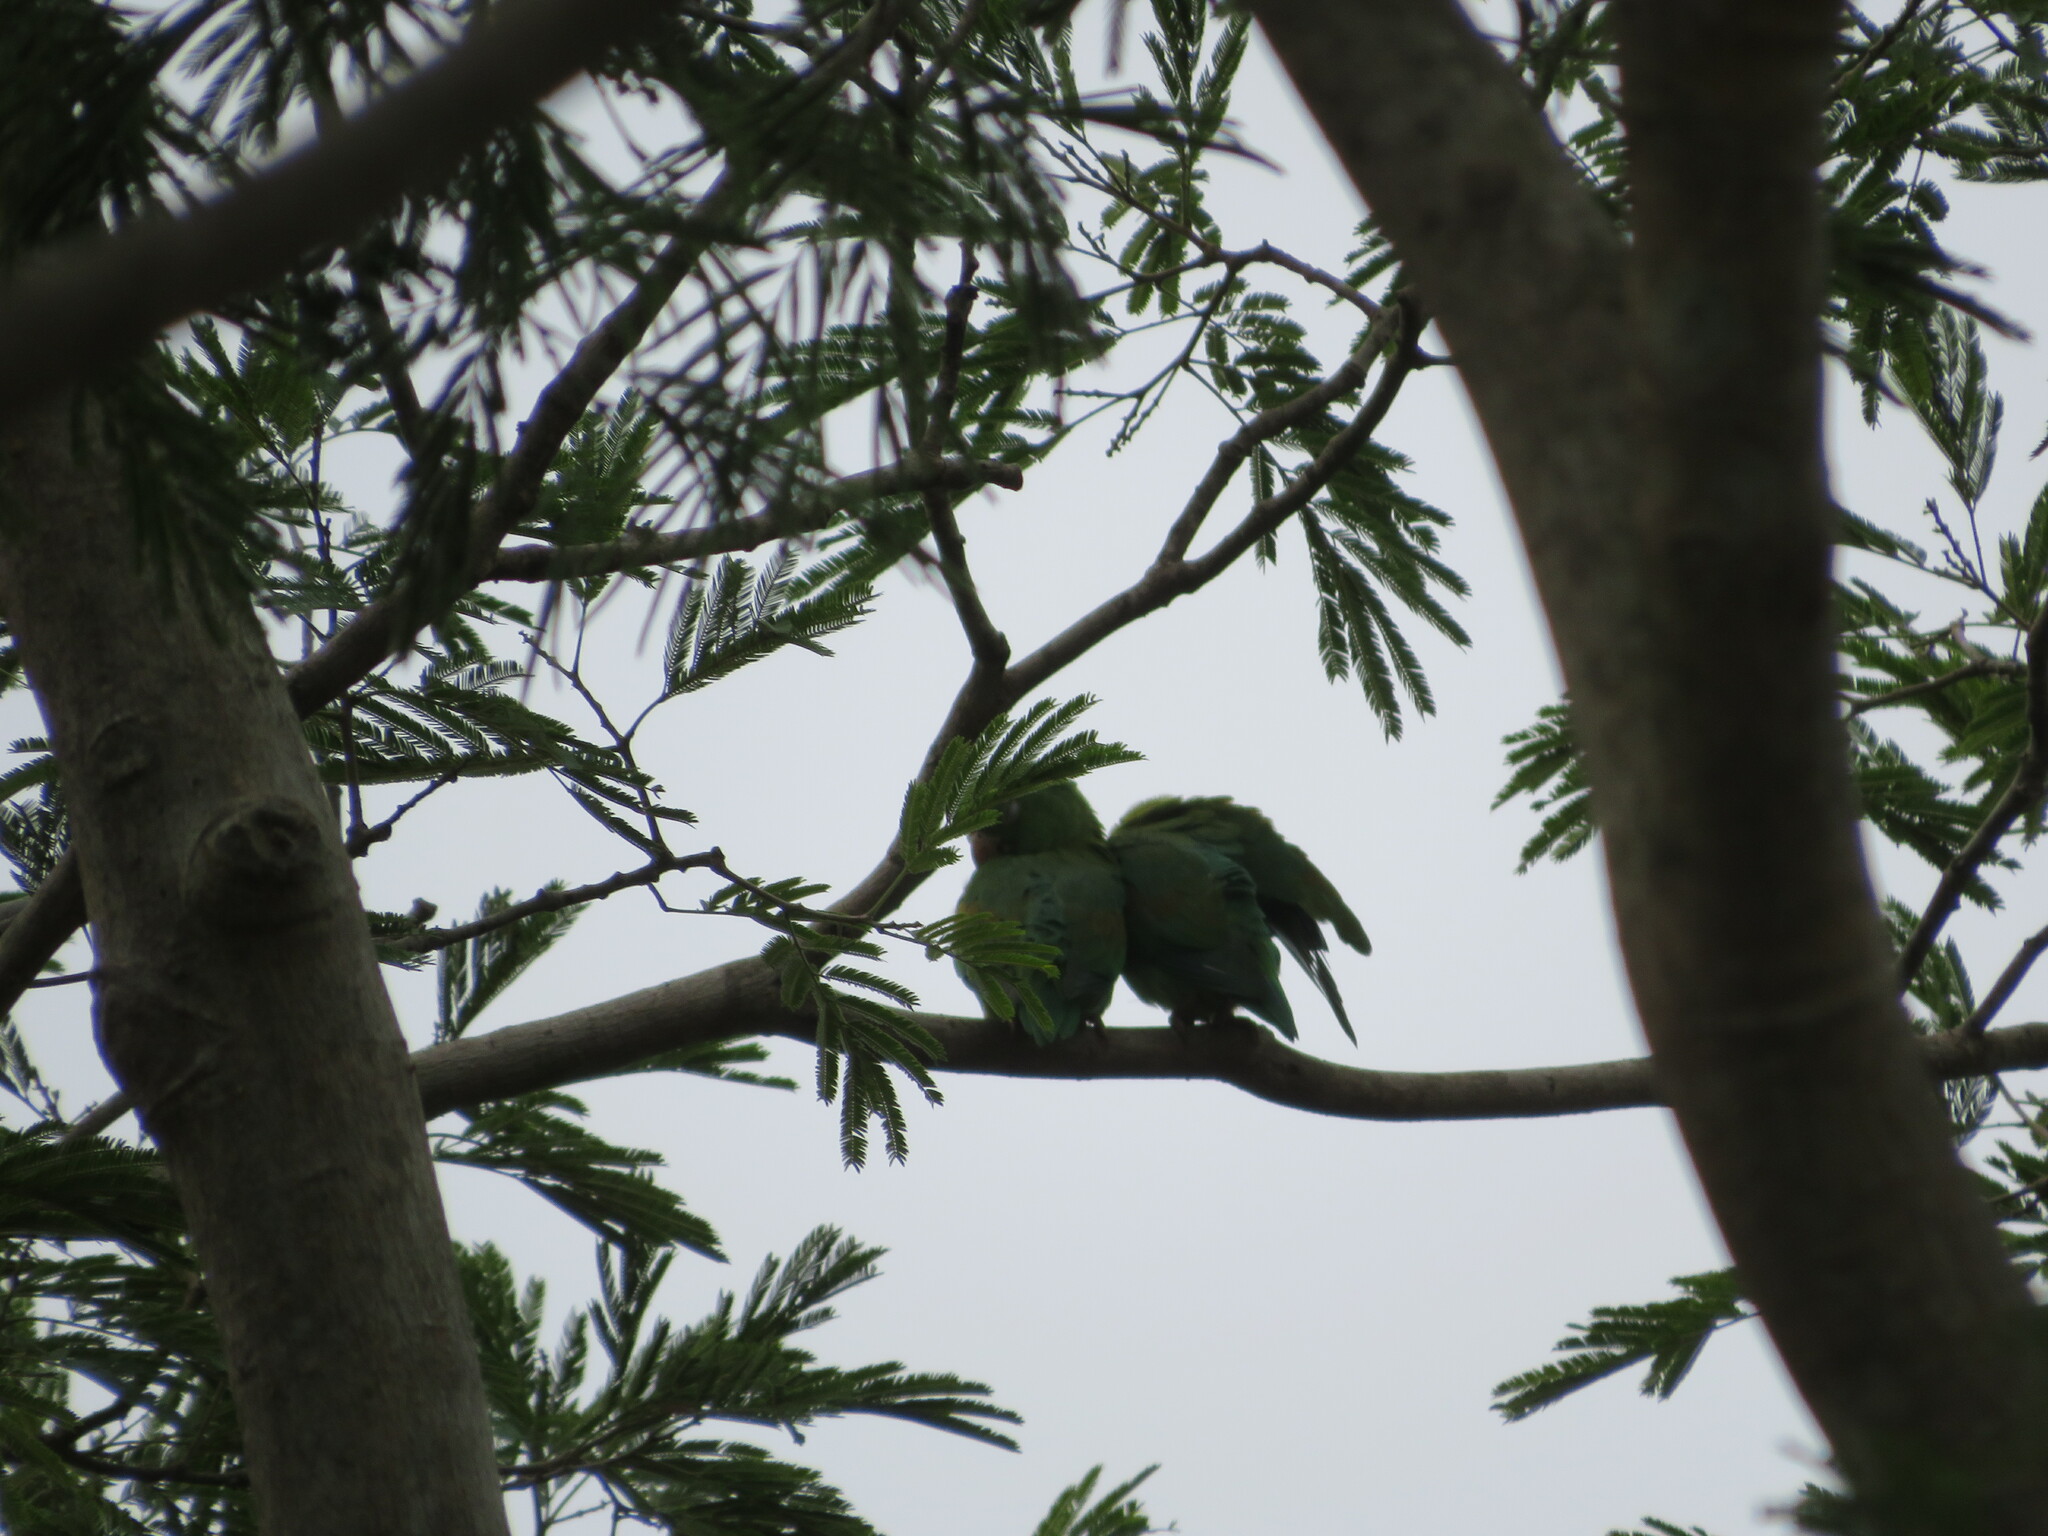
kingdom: Animalia
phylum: Chordata
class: Aves
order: Psittaciformes
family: Psittacidae
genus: Brotogeris
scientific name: Brotogeris jugularis
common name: Orange-chinned parakeet
